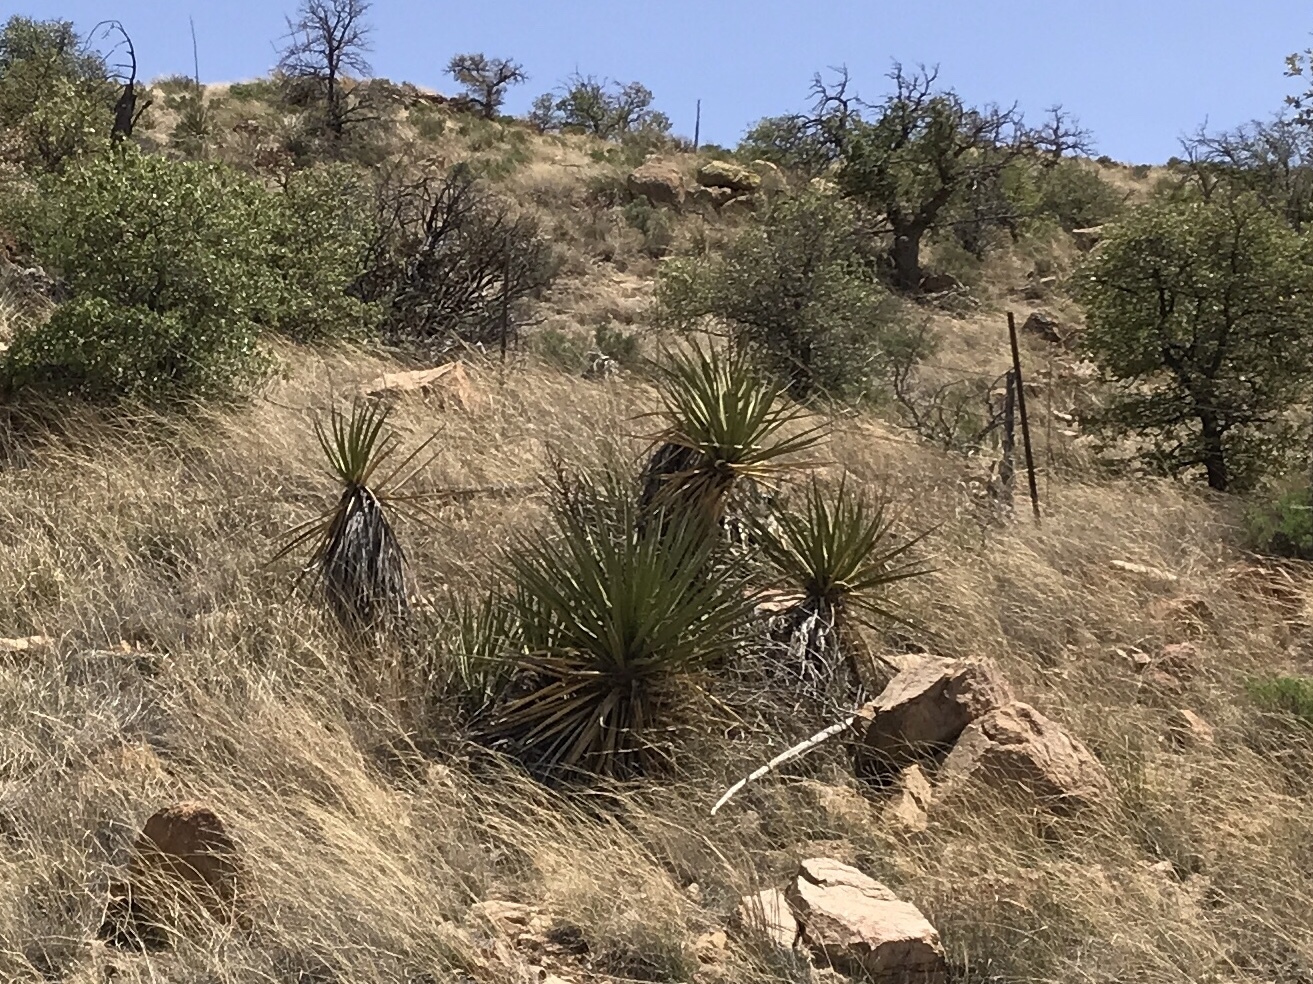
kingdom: Plantae
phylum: Tracheophyta
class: Liliopsida
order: Asparagales
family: Asparagaceae
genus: Yucca
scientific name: Yucca baccata
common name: Banana yucca
